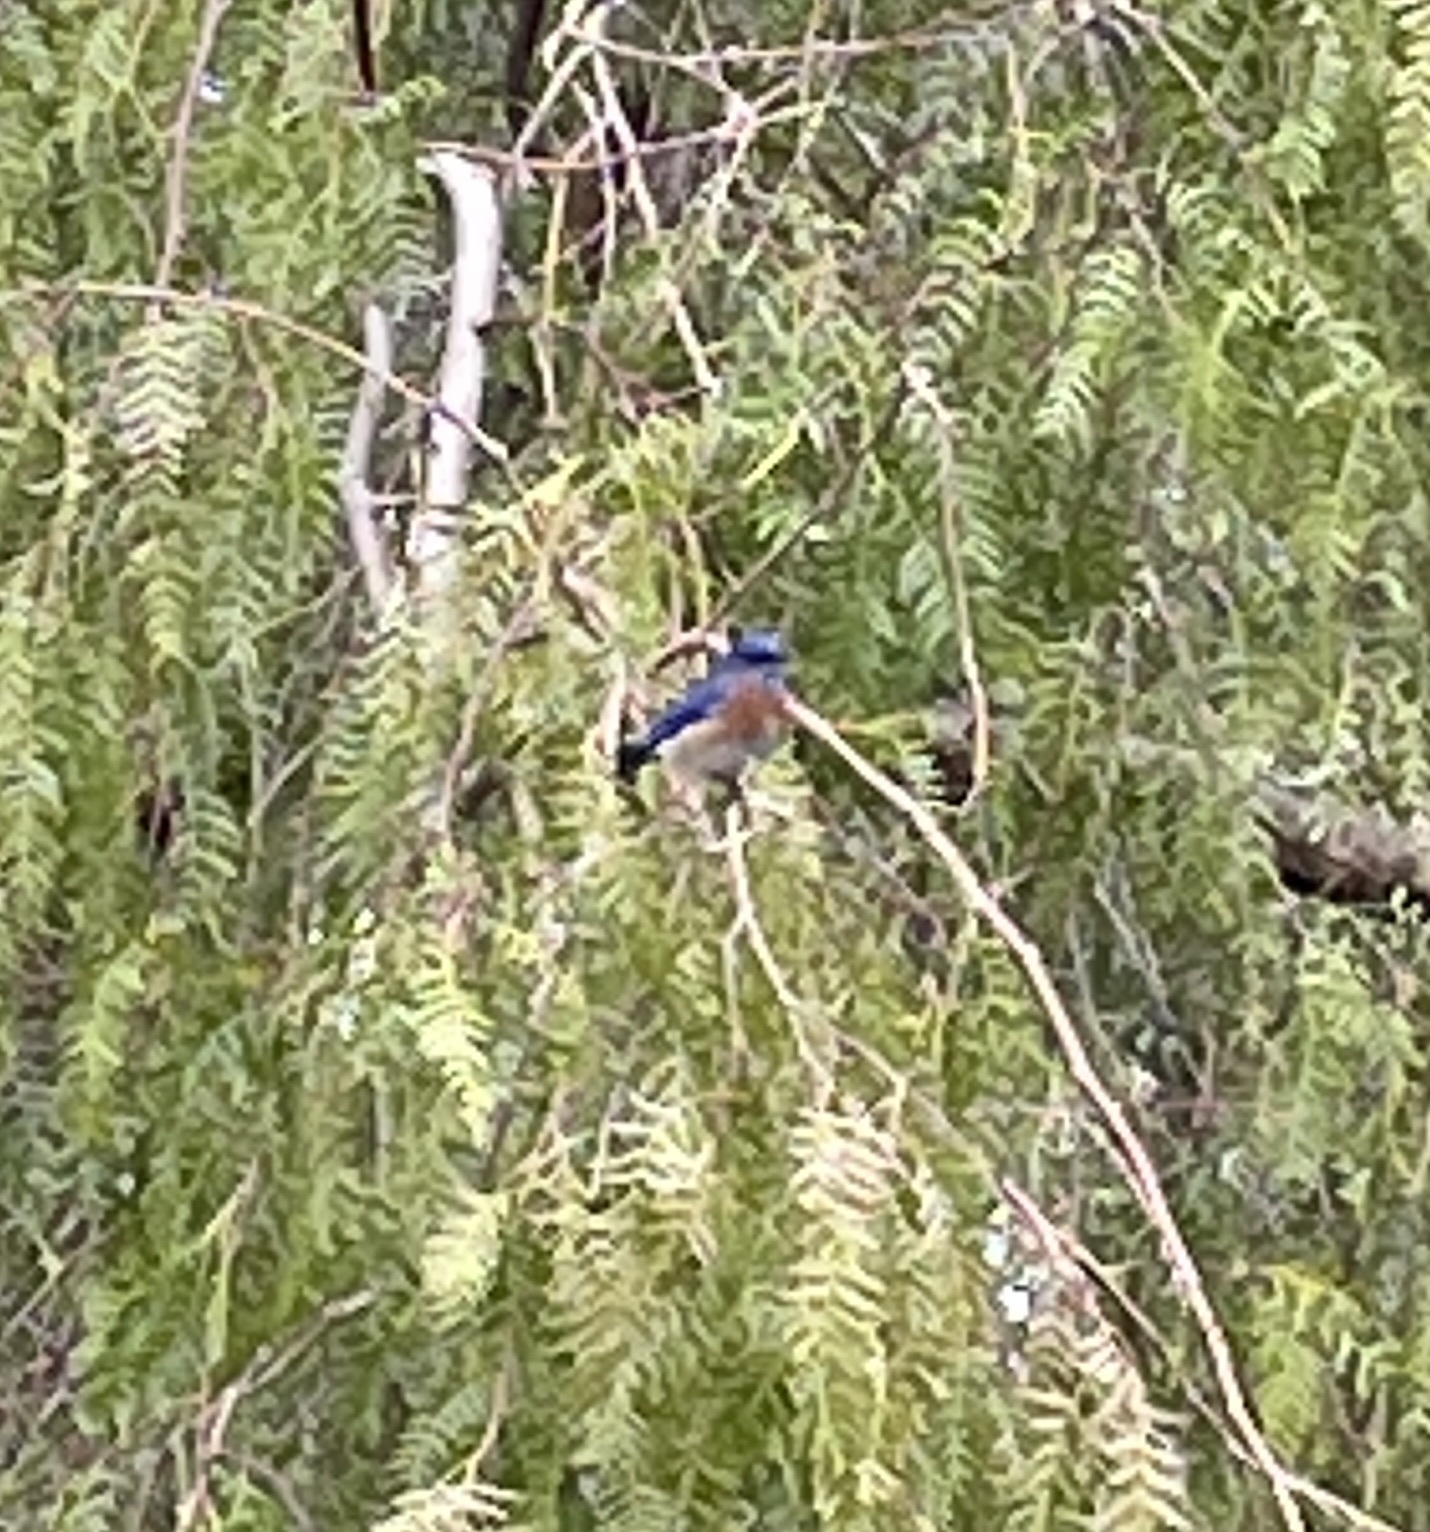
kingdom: Animalia
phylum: Chordata
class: Aves
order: Passeriformes
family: Turdidae
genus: Sialia
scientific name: Sialia mexicana
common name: Western bluebird
